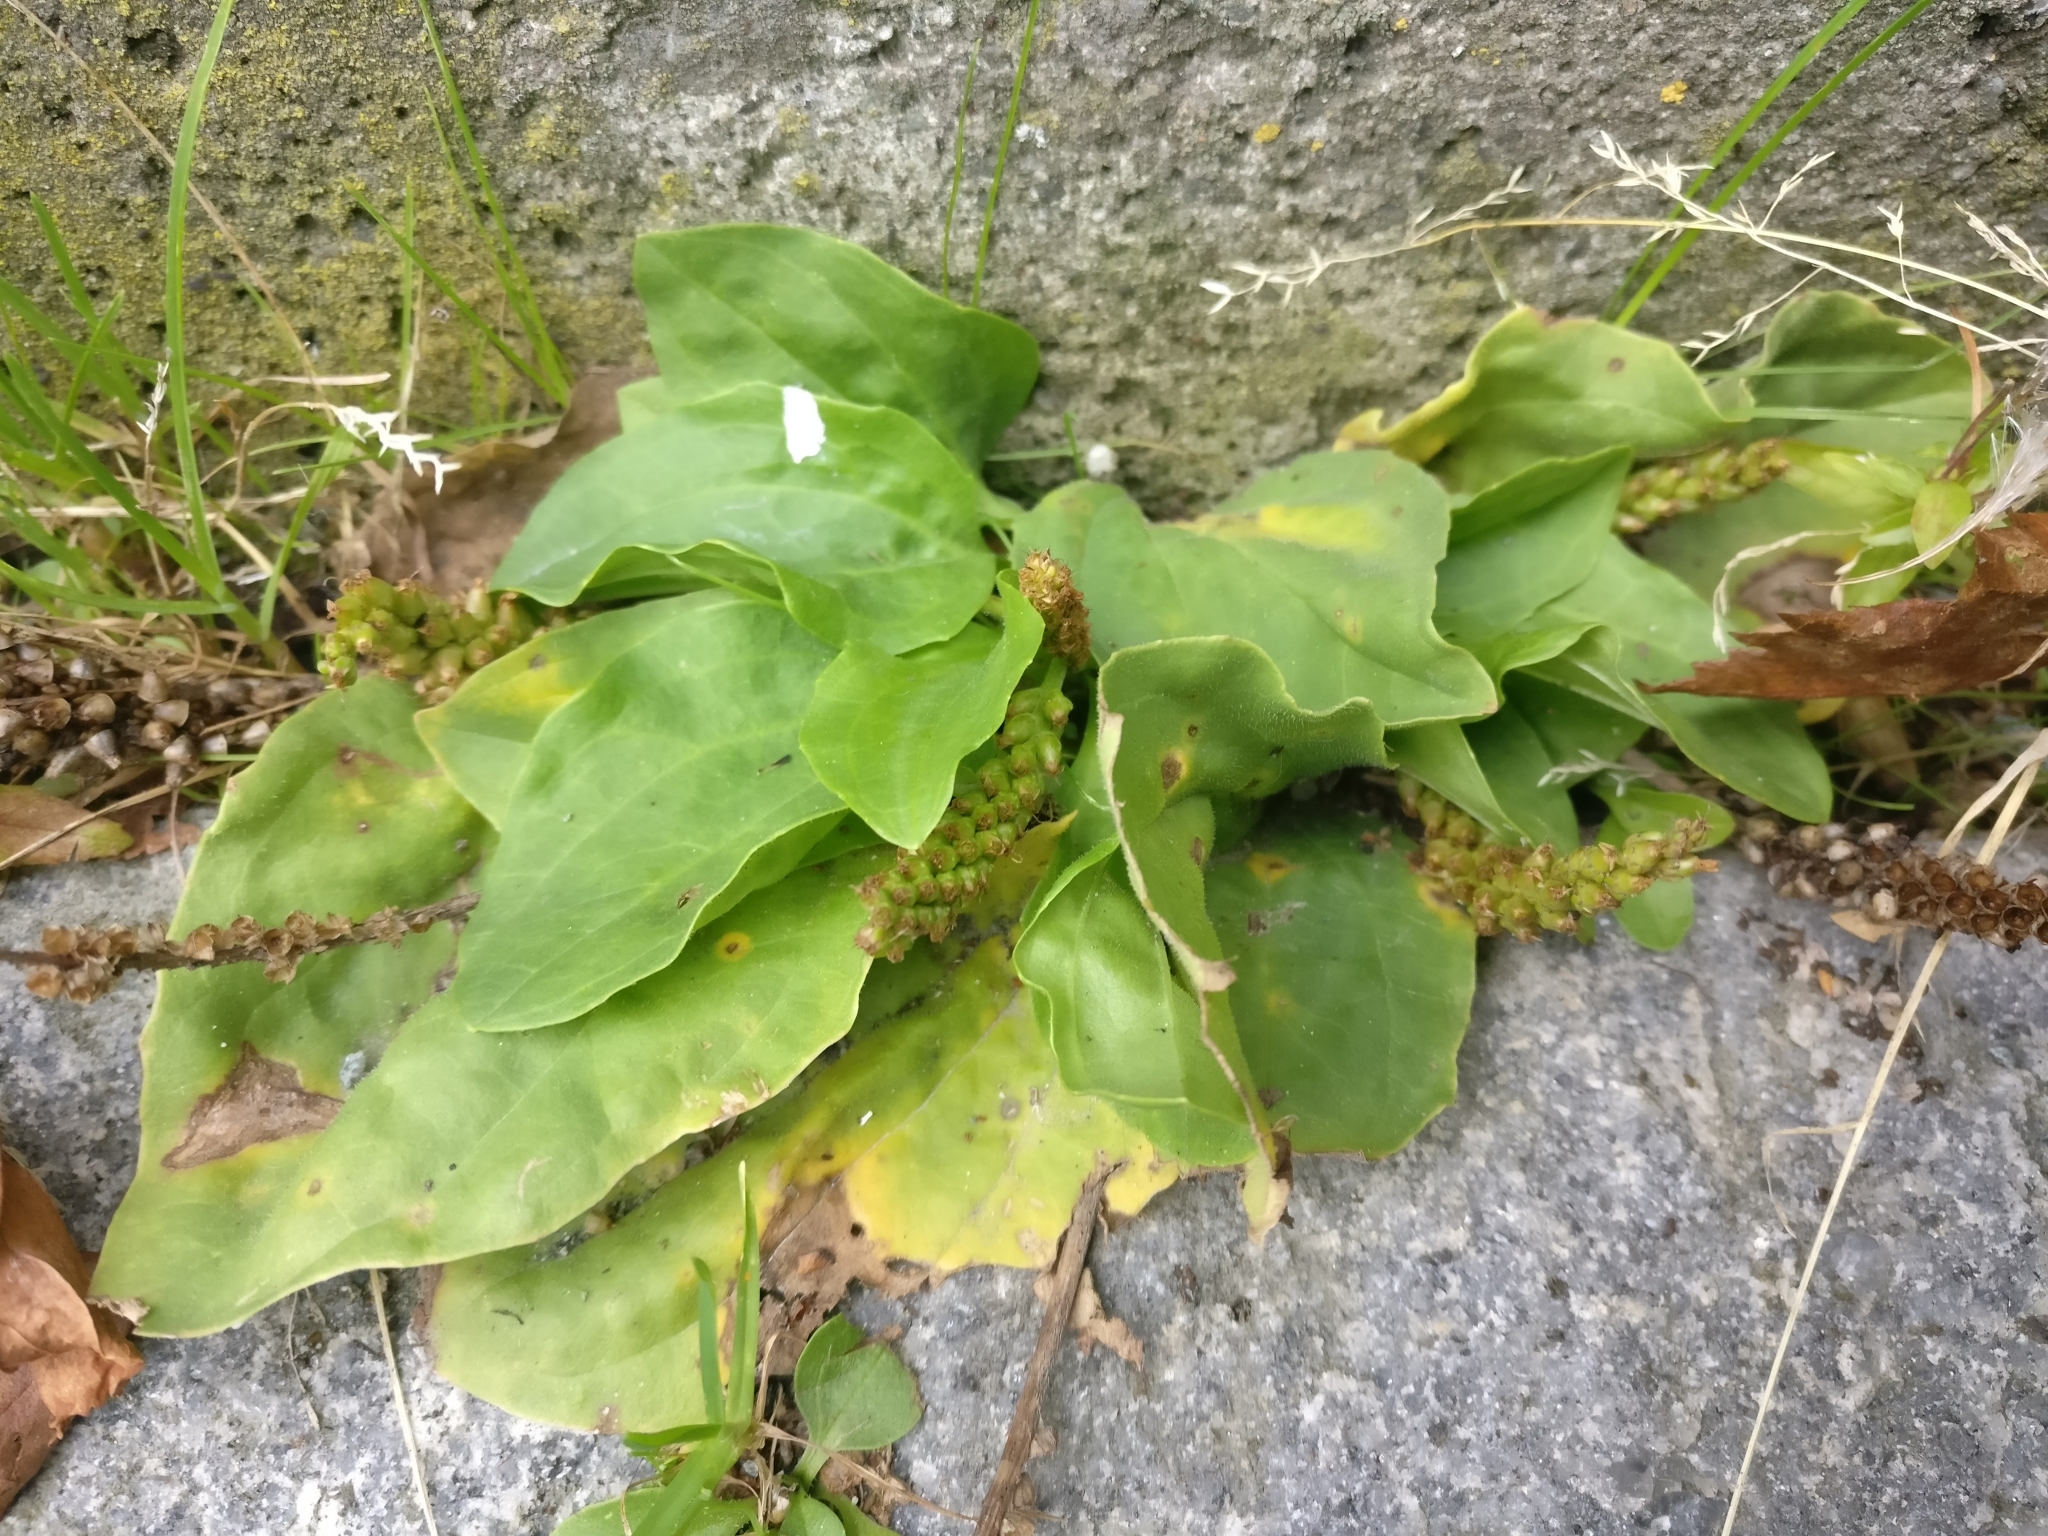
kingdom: Plantae
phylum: Tracheophyta
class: Magnoliopsida
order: Lamiales
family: Plantaginaceae
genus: Plantago
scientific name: Plantago major
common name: Common plantain
